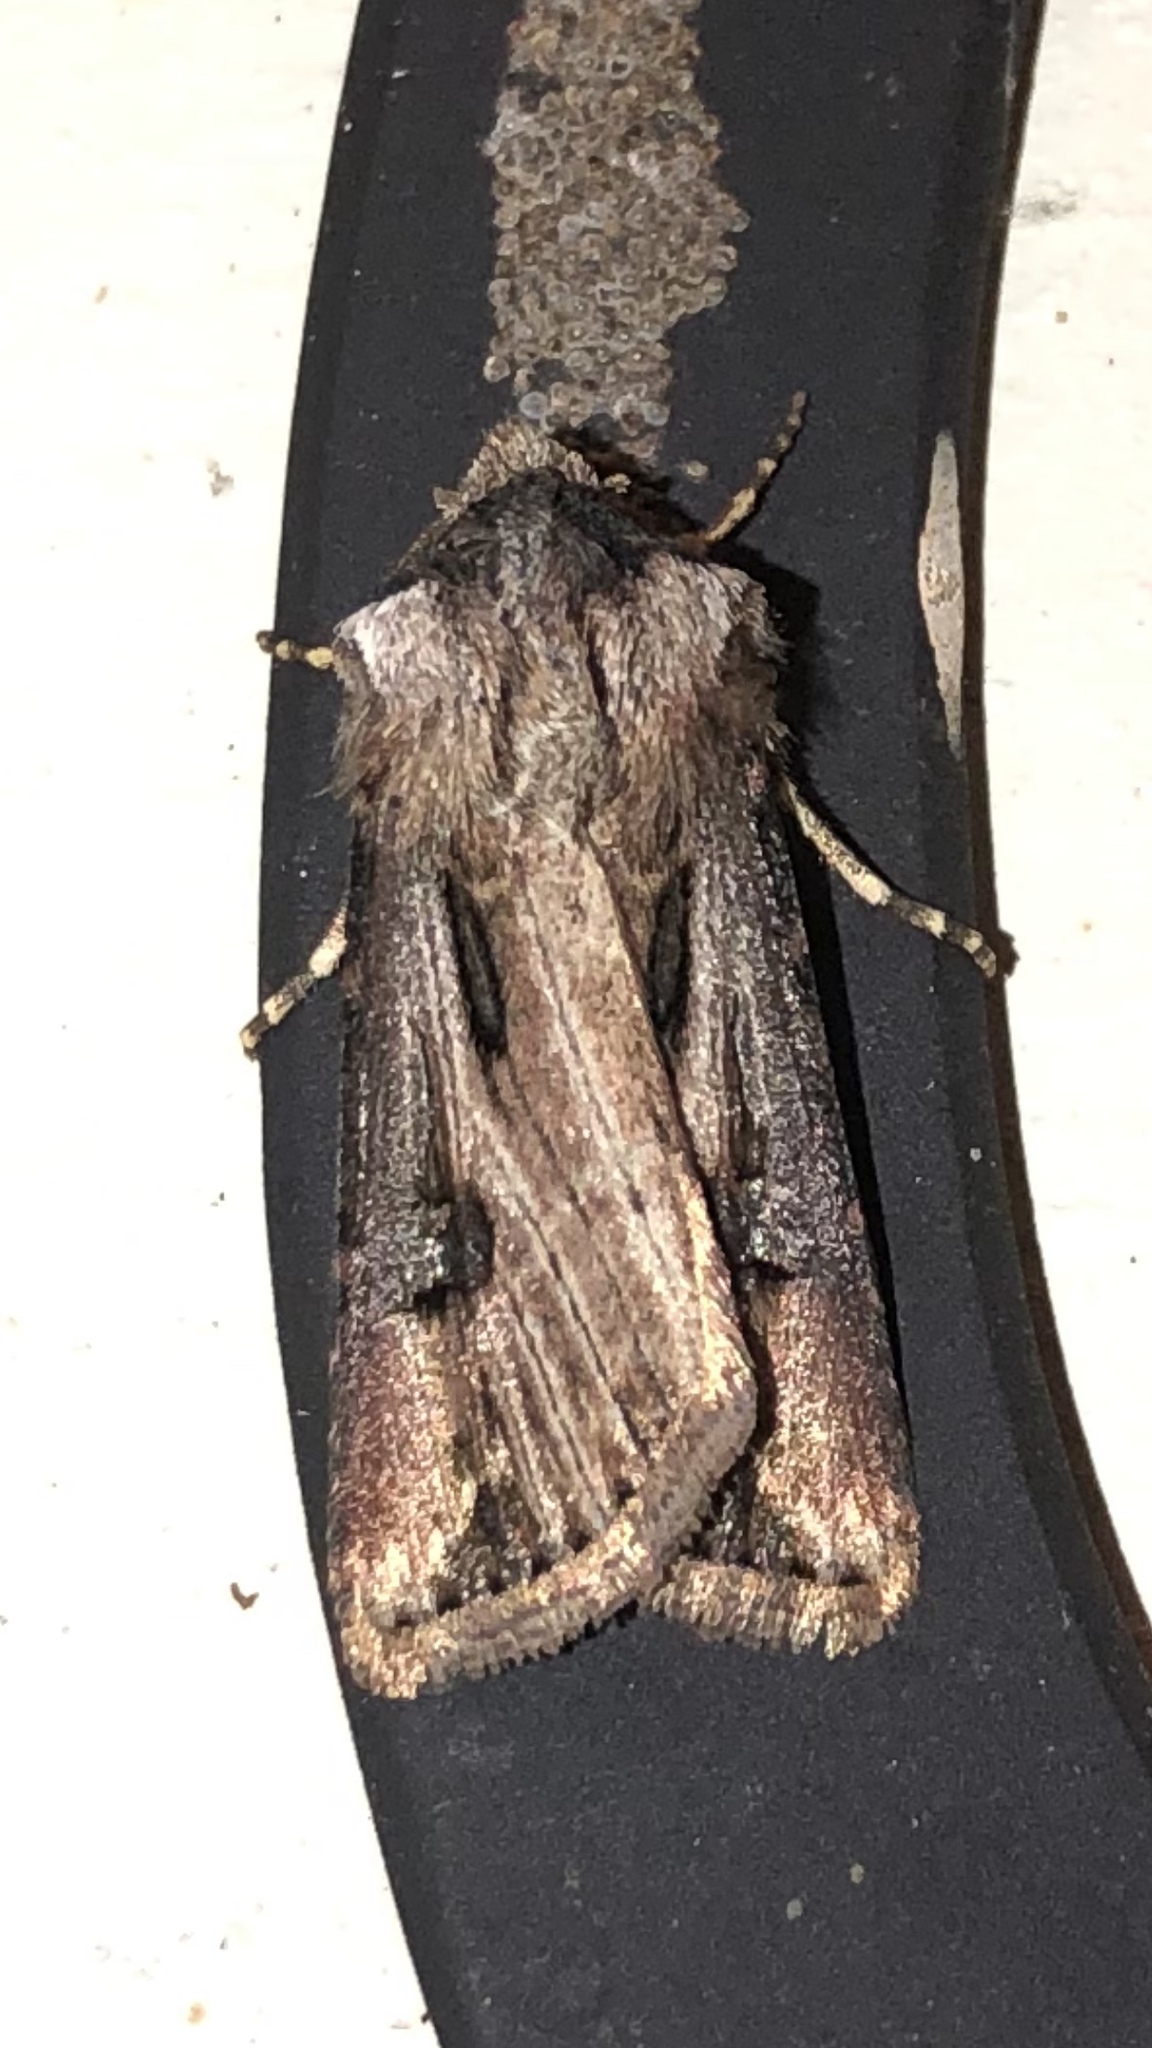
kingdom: Animalia
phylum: Arthropoda
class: Insecta
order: Lepidoptera
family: Noctuidae
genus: Agrotis
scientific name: Agrotis venerabilis
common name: Venerable dart
